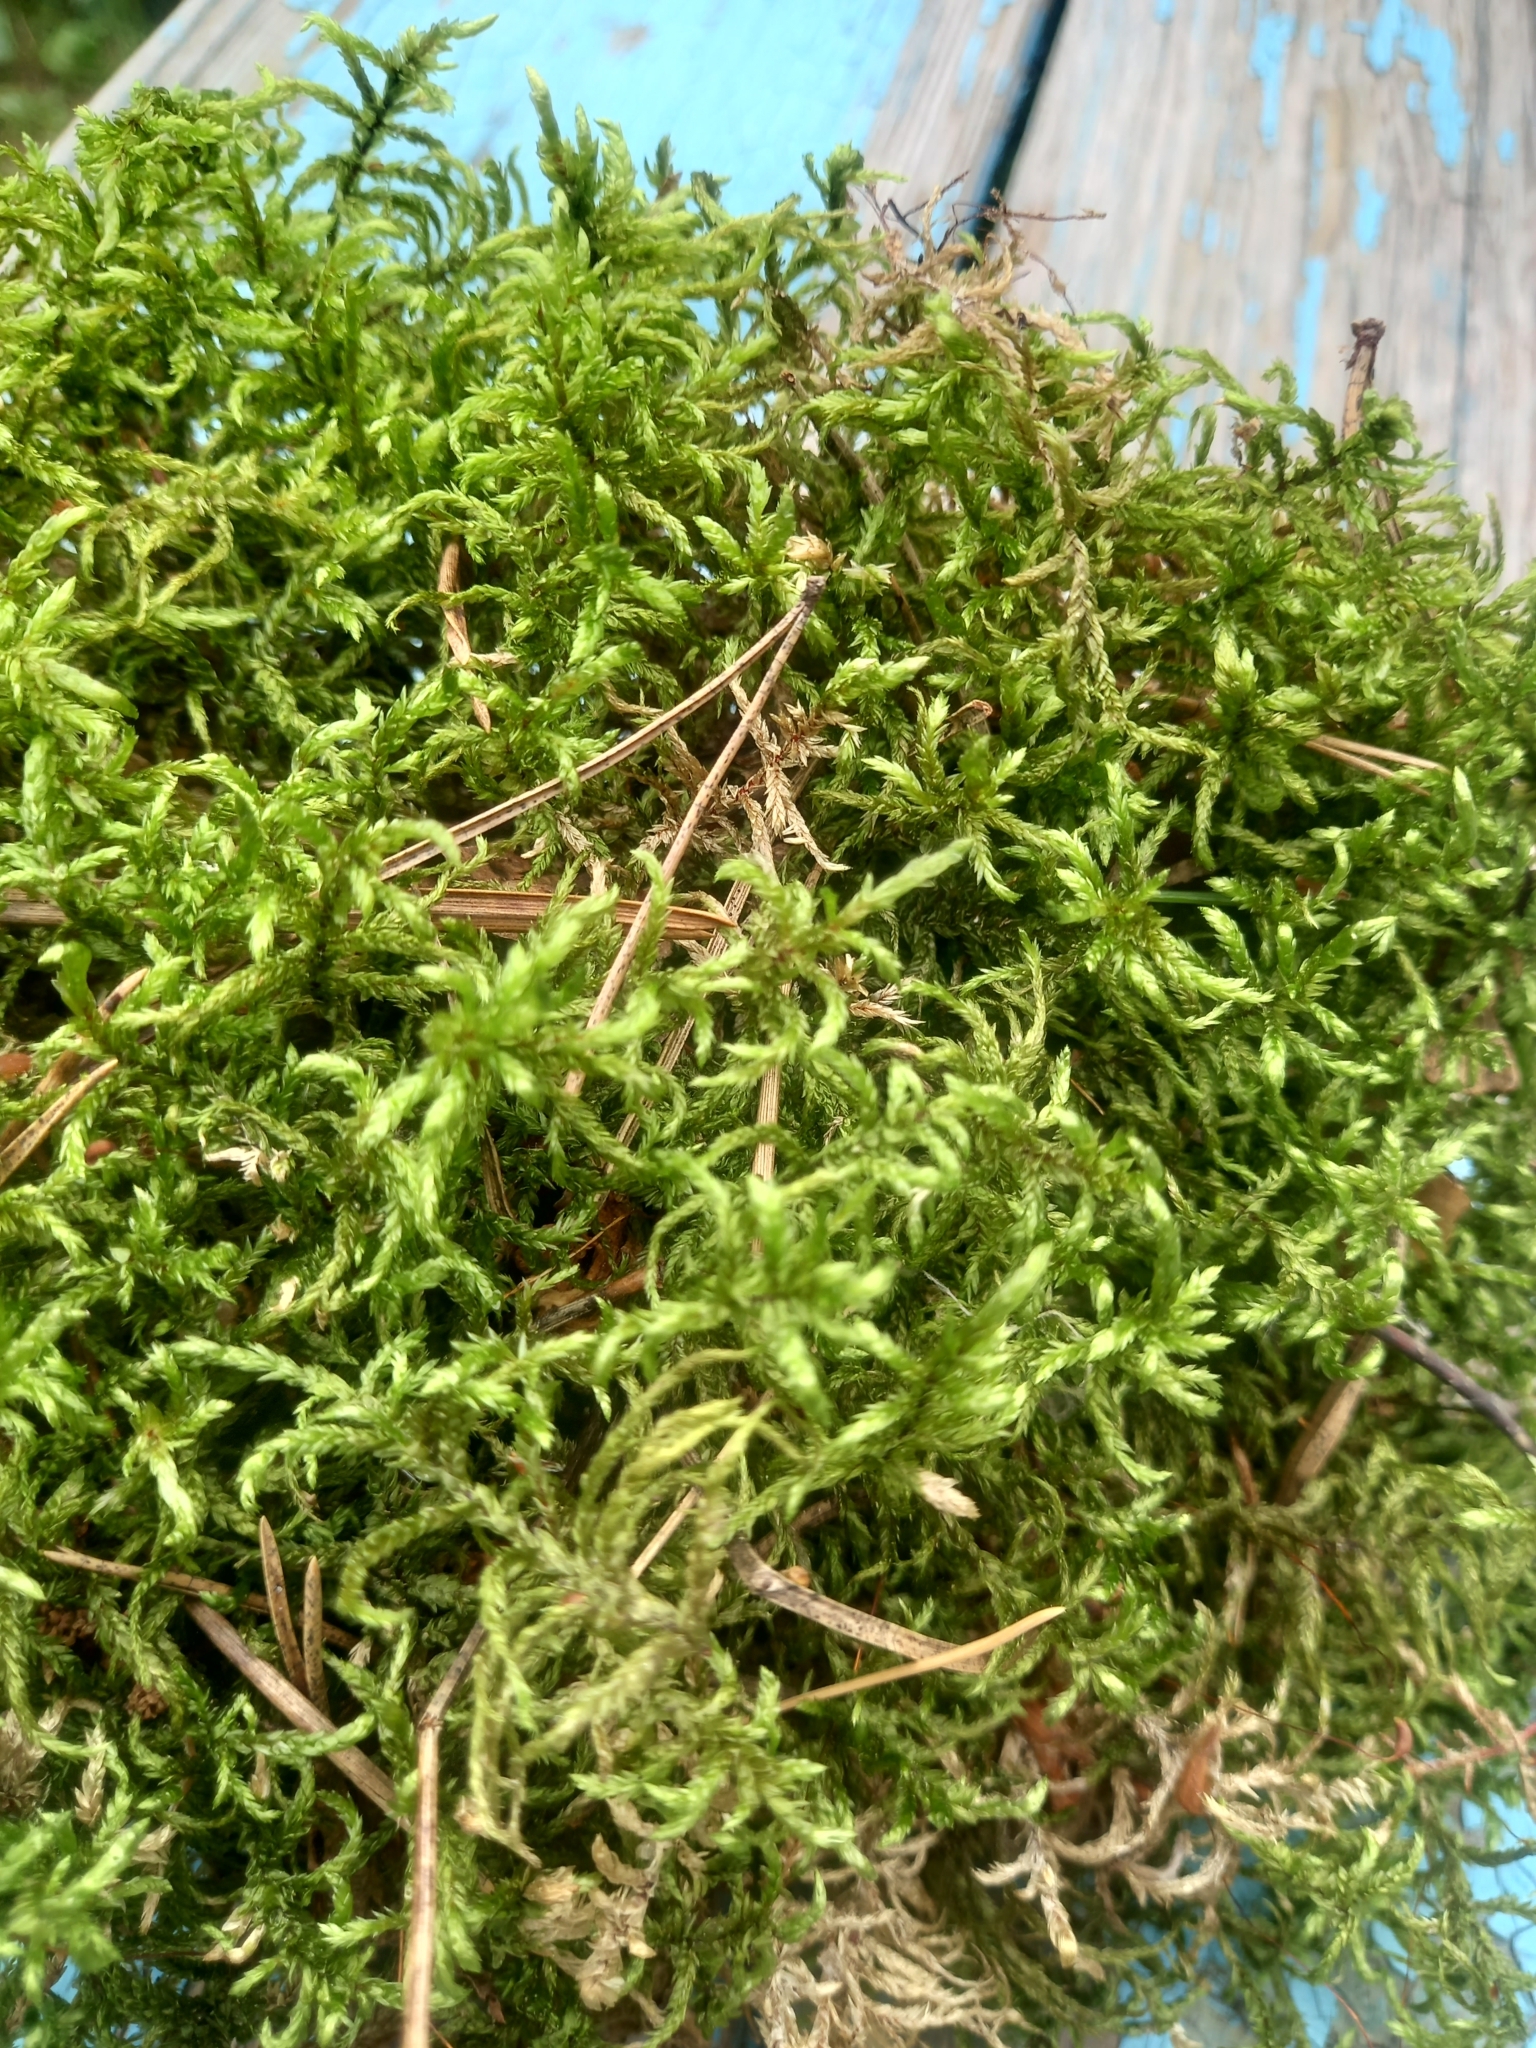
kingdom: Plantae
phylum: Bryophyta
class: Bryopsida
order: Hypnales
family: Hylocomiaceae
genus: Pleurozium
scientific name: Pleurozium schreberi
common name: Red-stemmed feather moss
